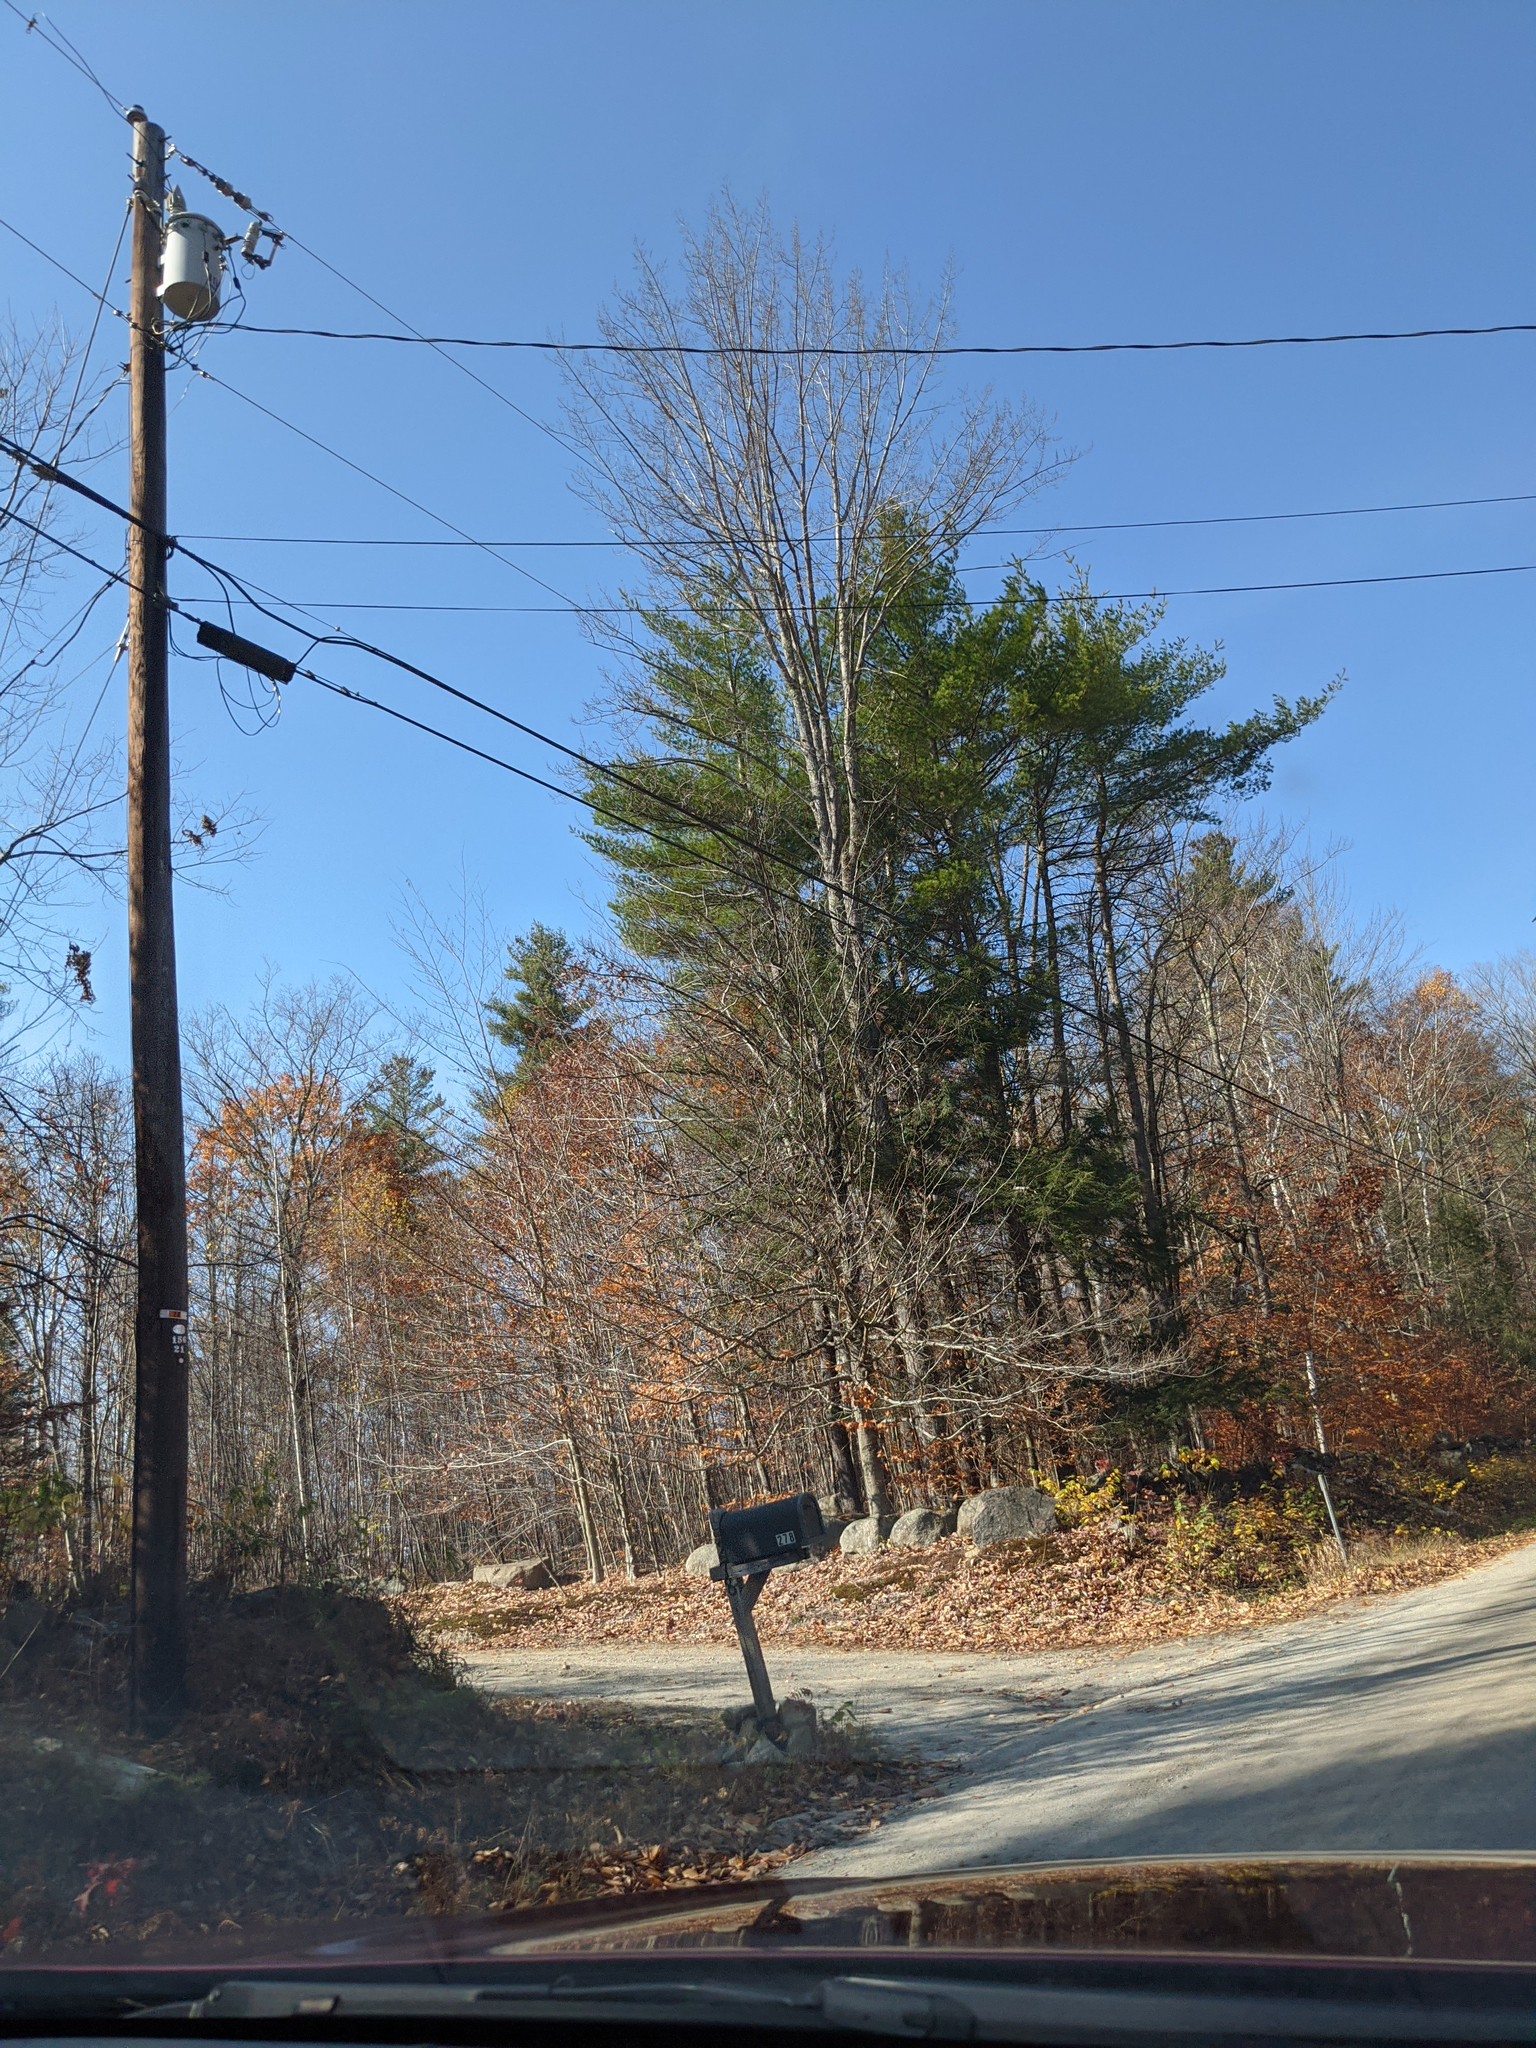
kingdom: Plantae
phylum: Tracheophyta
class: Pinopsida
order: Pinales
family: Pinaceae
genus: Pinus
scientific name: Pinus strobus
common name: Weymouth pine
